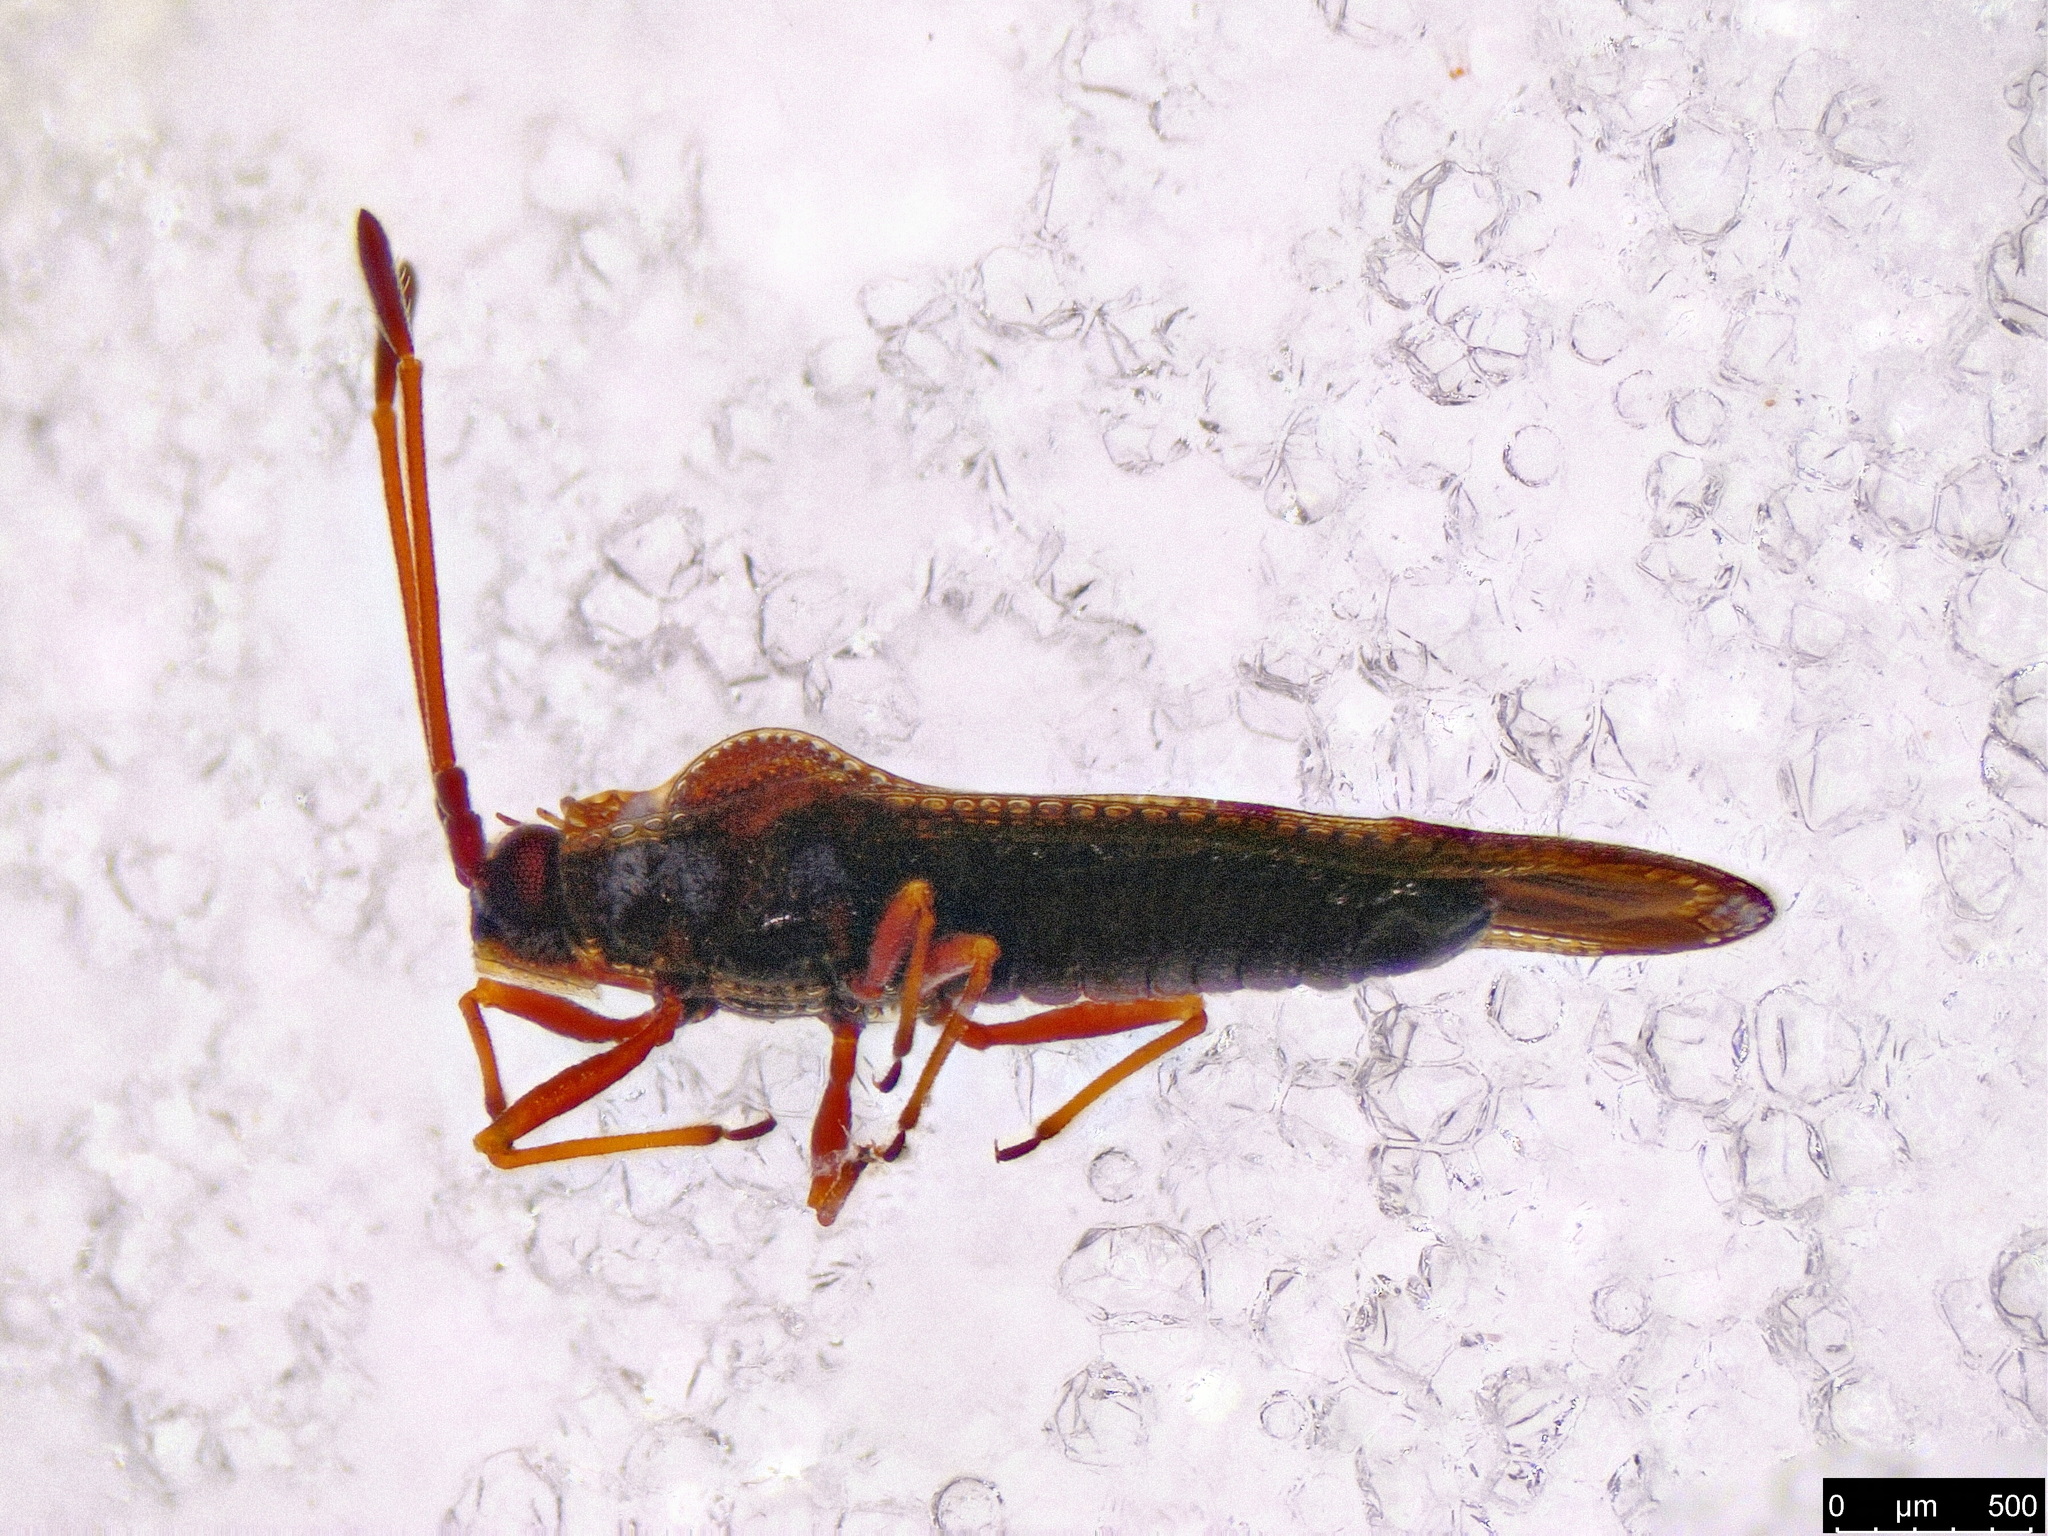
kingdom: Animalia
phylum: Arthropoda
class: Insecta
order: Hemiptera
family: Tingidae
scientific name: Tingidae
